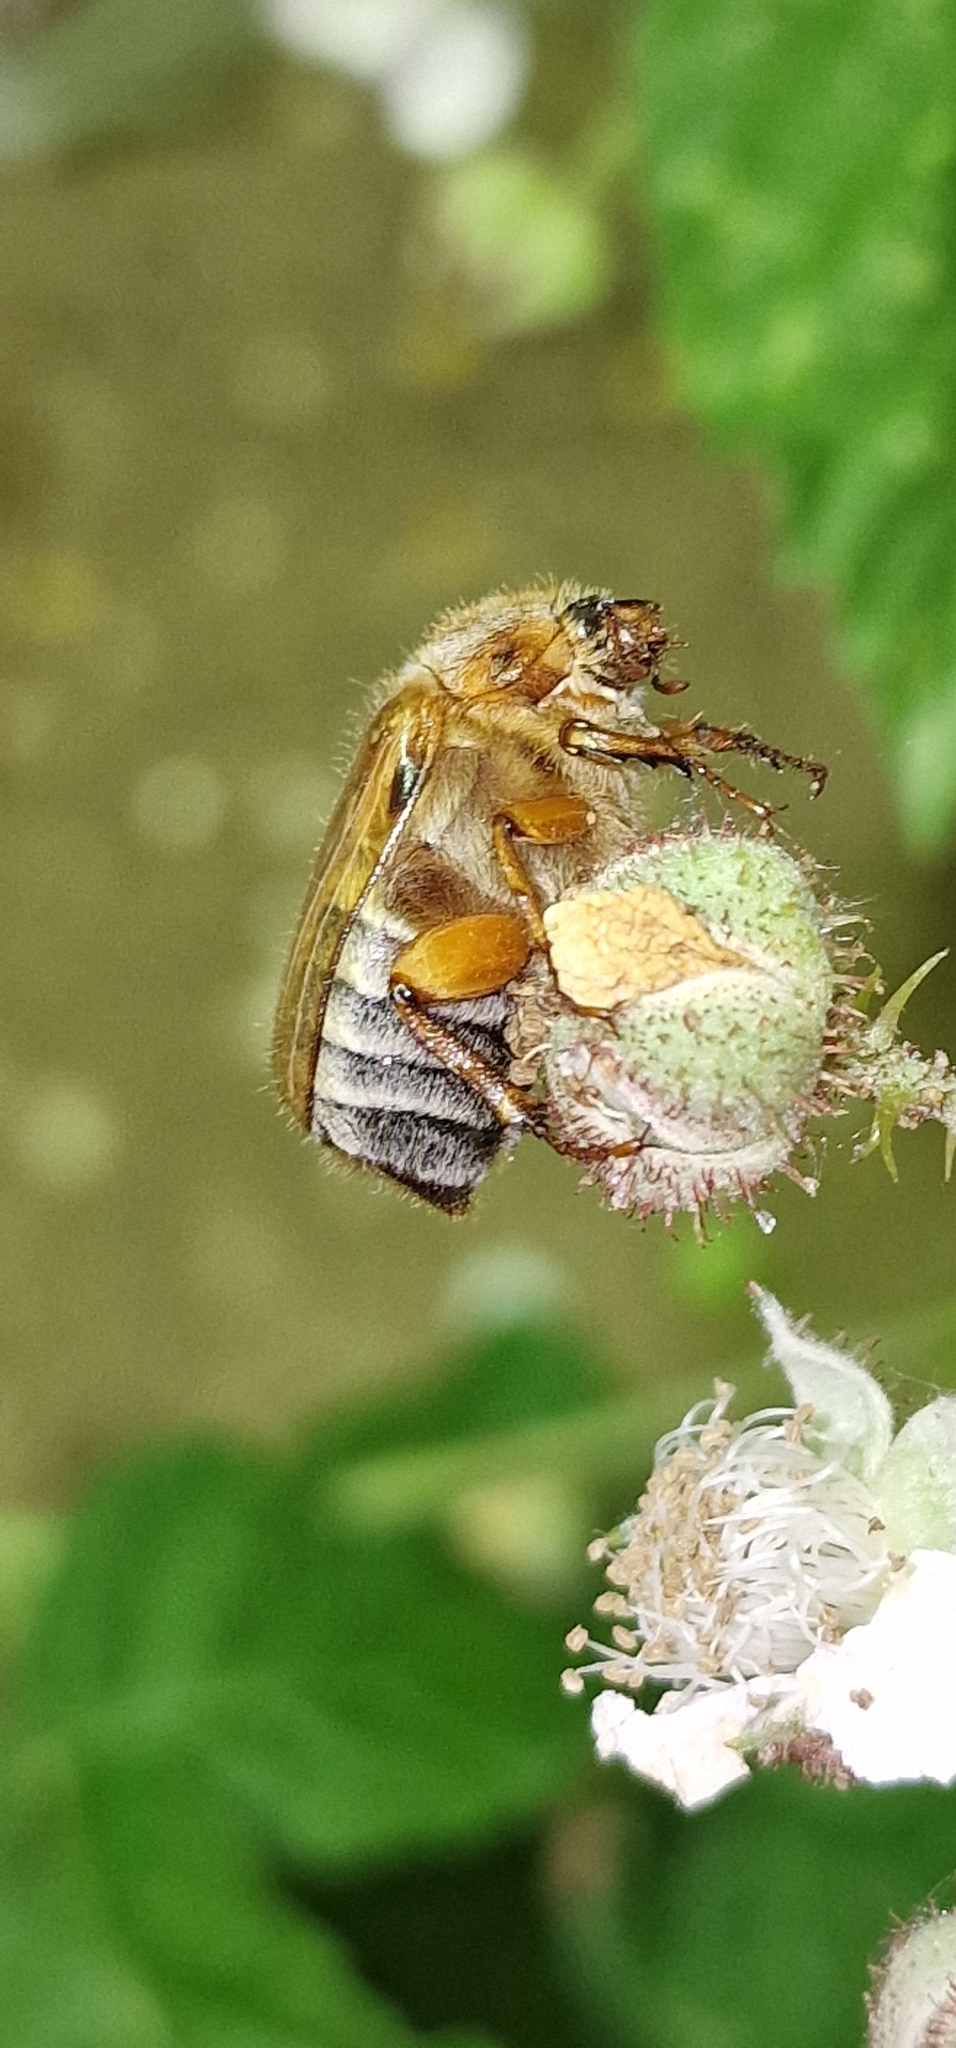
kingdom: Animalia
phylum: Arthropoda
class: Insecta
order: Coleoptera
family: Scarabaeidae
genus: Amphimallon
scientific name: Amphimallon solstitiale
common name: Summer chafer
